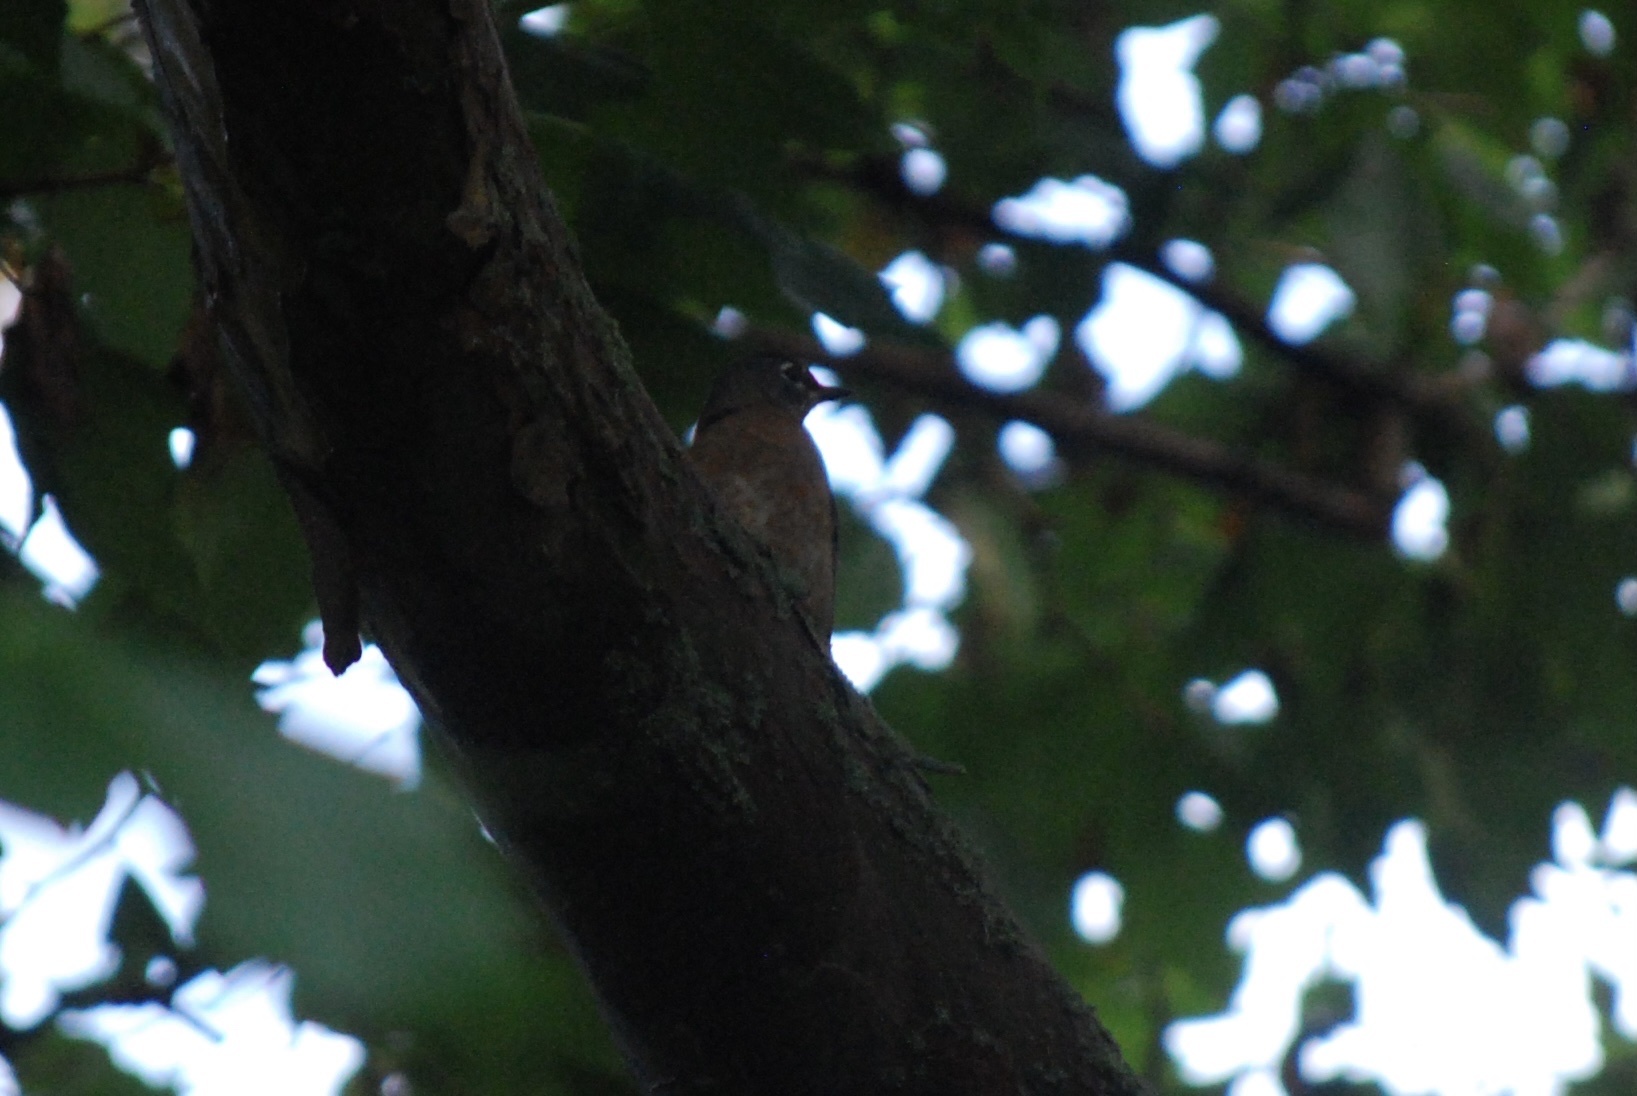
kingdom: Animalia
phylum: Chordata
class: Aves
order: Passeriformes
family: Turdidae
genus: Turdus
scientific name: Turdus migratorius
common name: American robin
